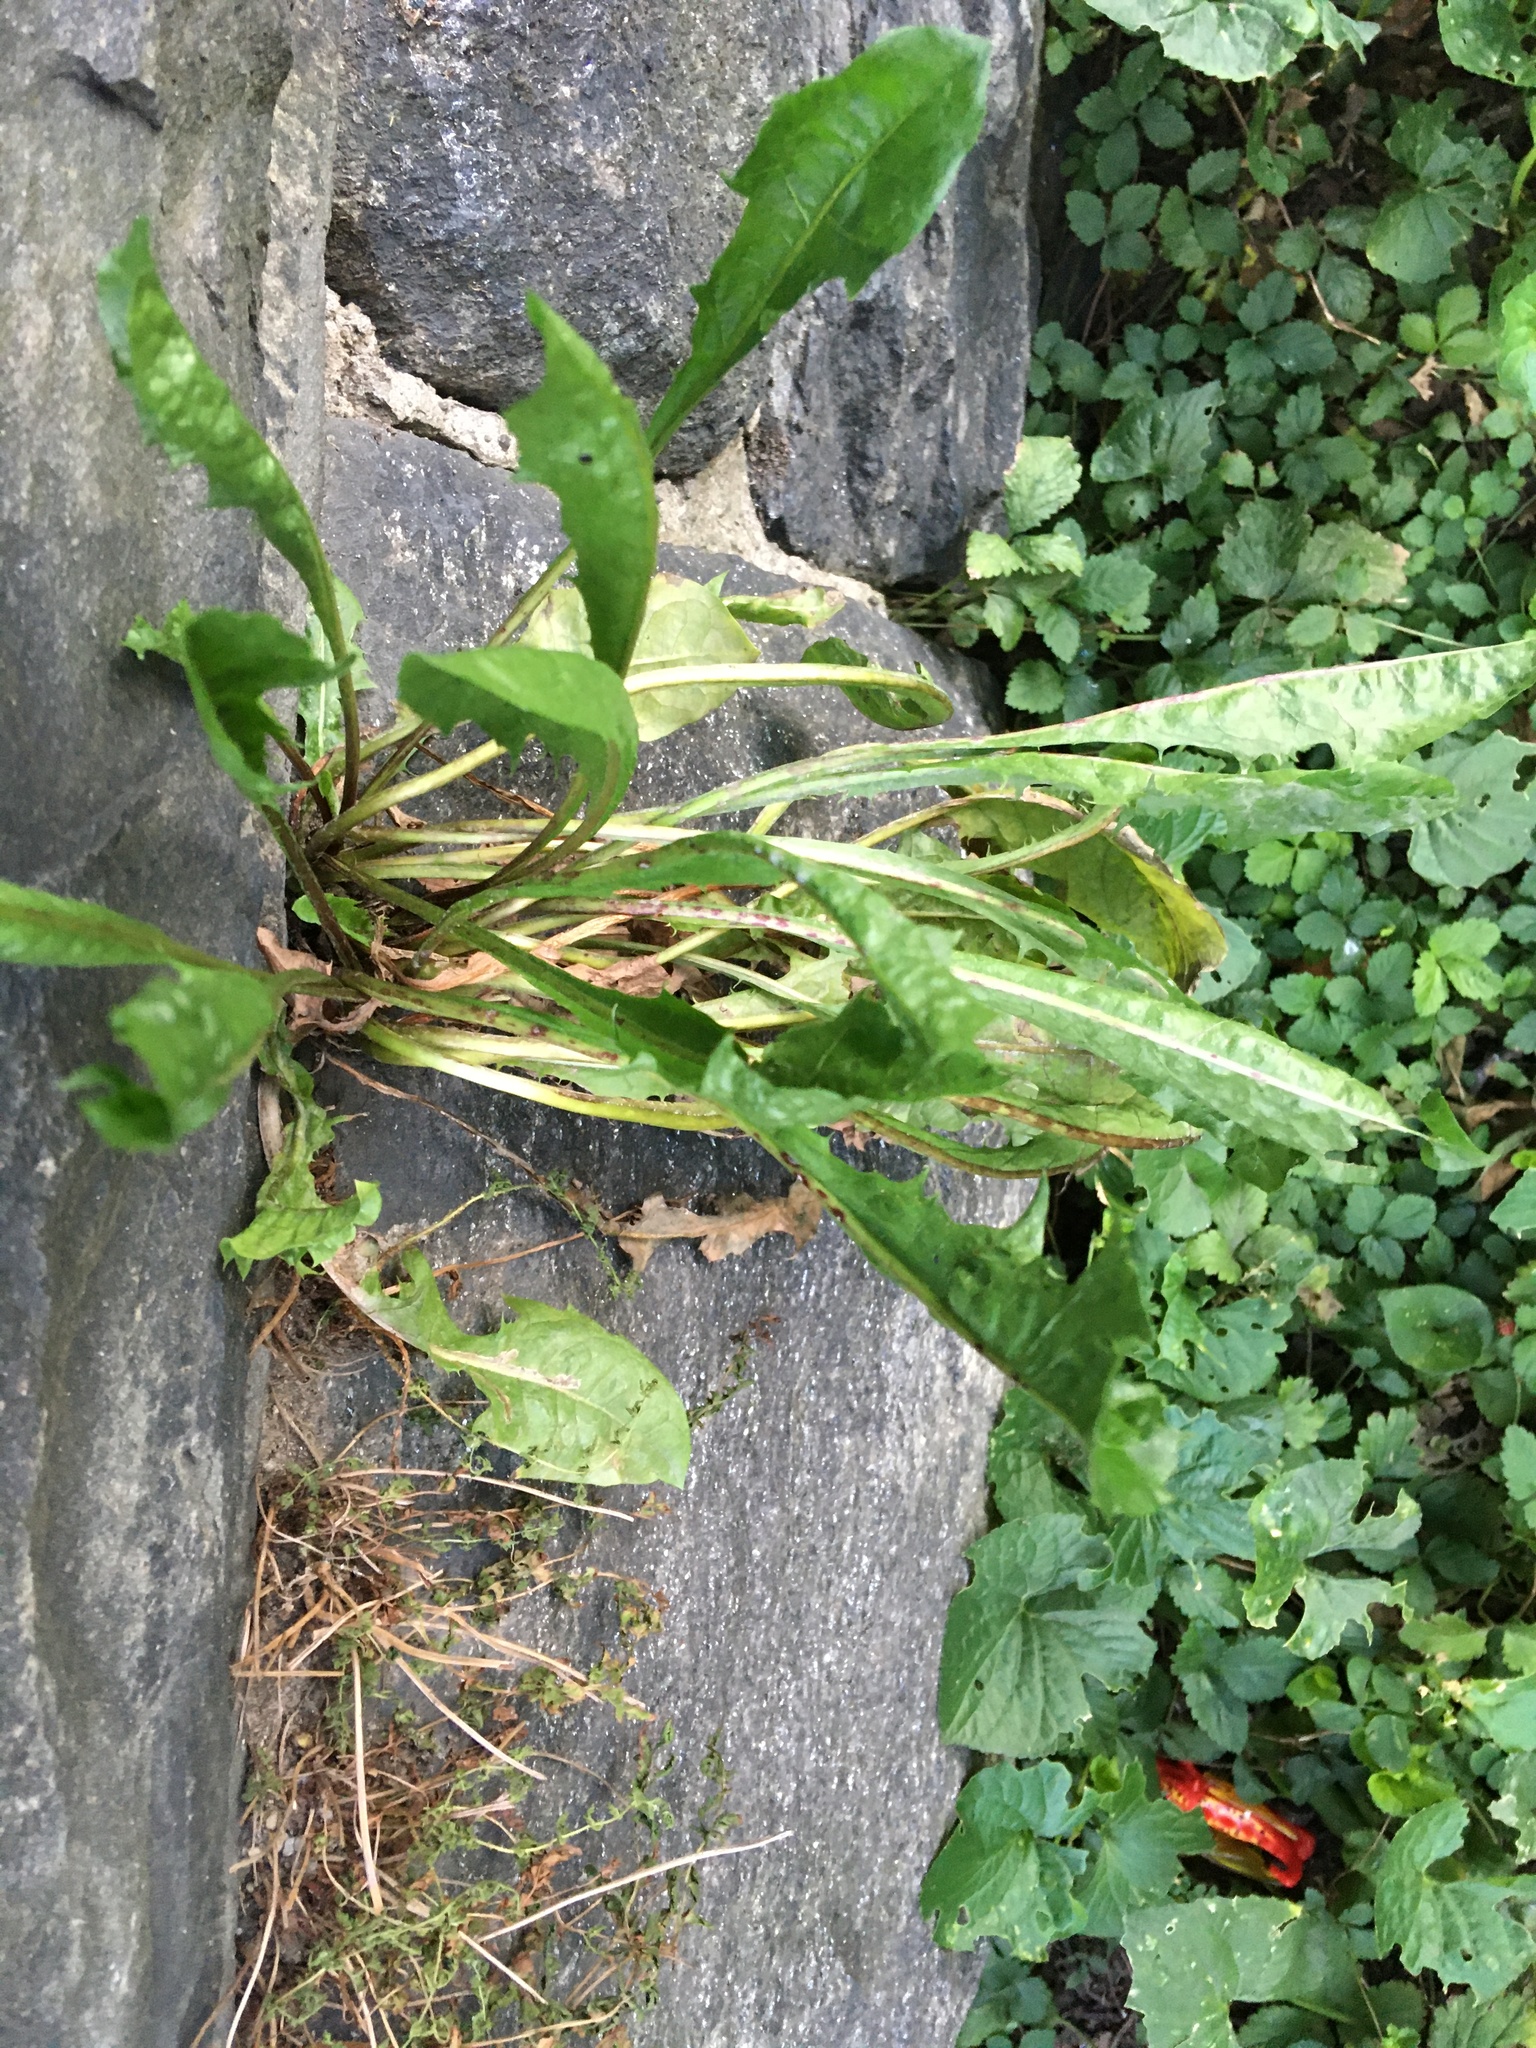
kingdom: Plantae
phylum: Tracheophyta
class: Magnoliopsida
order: Asterales
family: Asteraceae
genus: Taraxacum
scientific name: Taraxacum officinale
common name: Common dandelion
